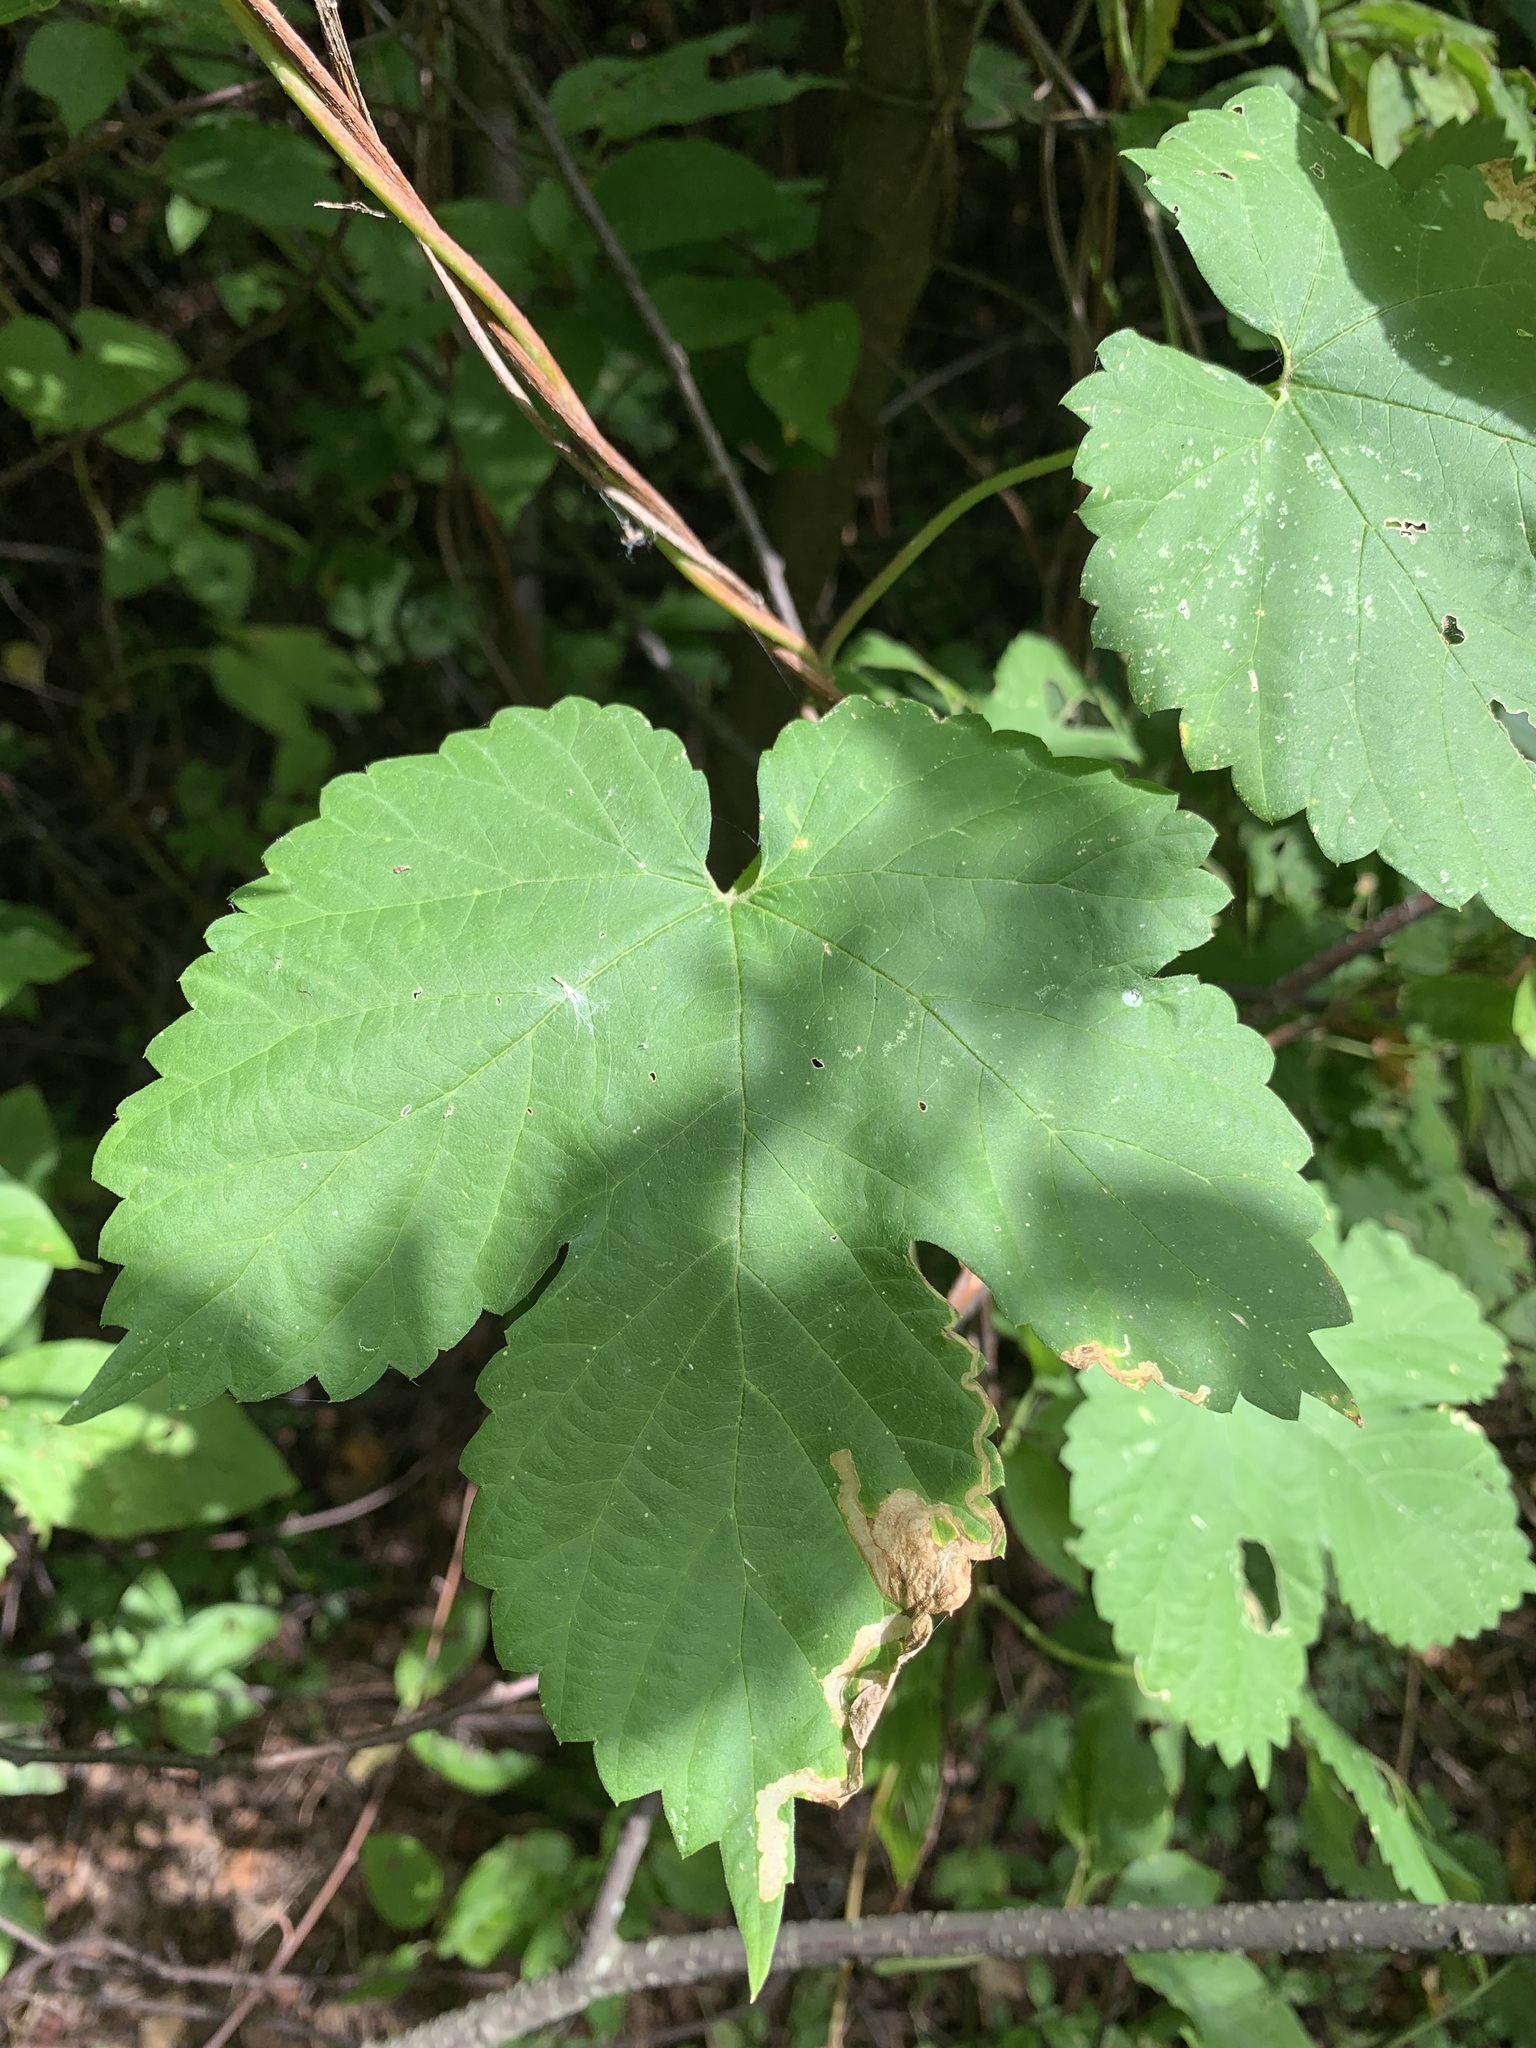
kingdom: Plantae
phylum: Tracheophyta
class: Magnoliopsida
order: Rosales
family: Cannabaceae
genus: Humulus
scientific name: Humulus lupulus
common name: Hop
